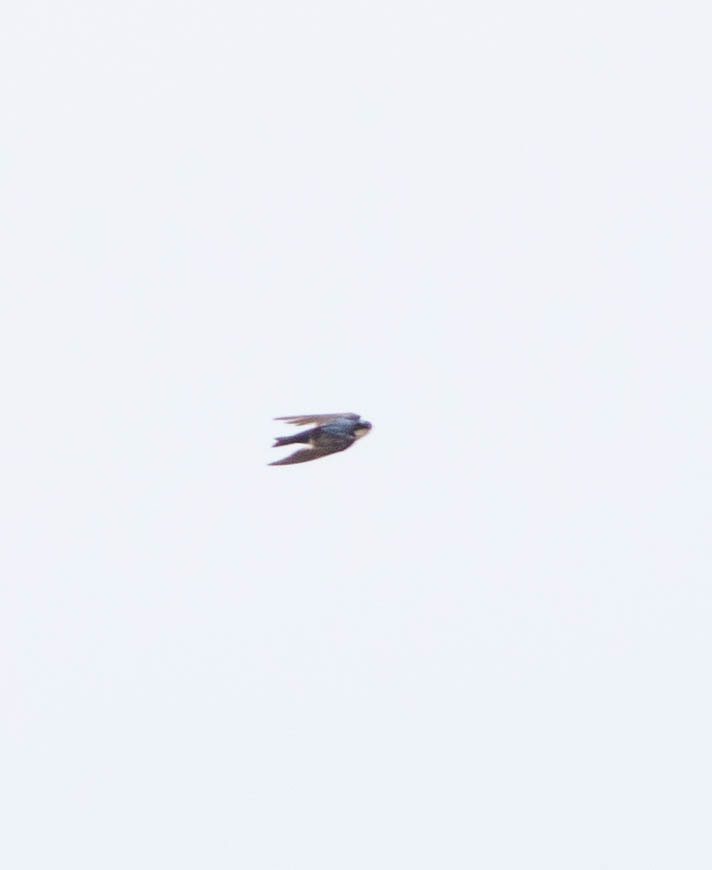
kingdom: Animalia
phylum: Chordata
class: Aves
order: Passeriformes
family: Hirundinidae
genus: Tachycineta
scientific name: Tachycineta bicolor
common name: Tree swallow
